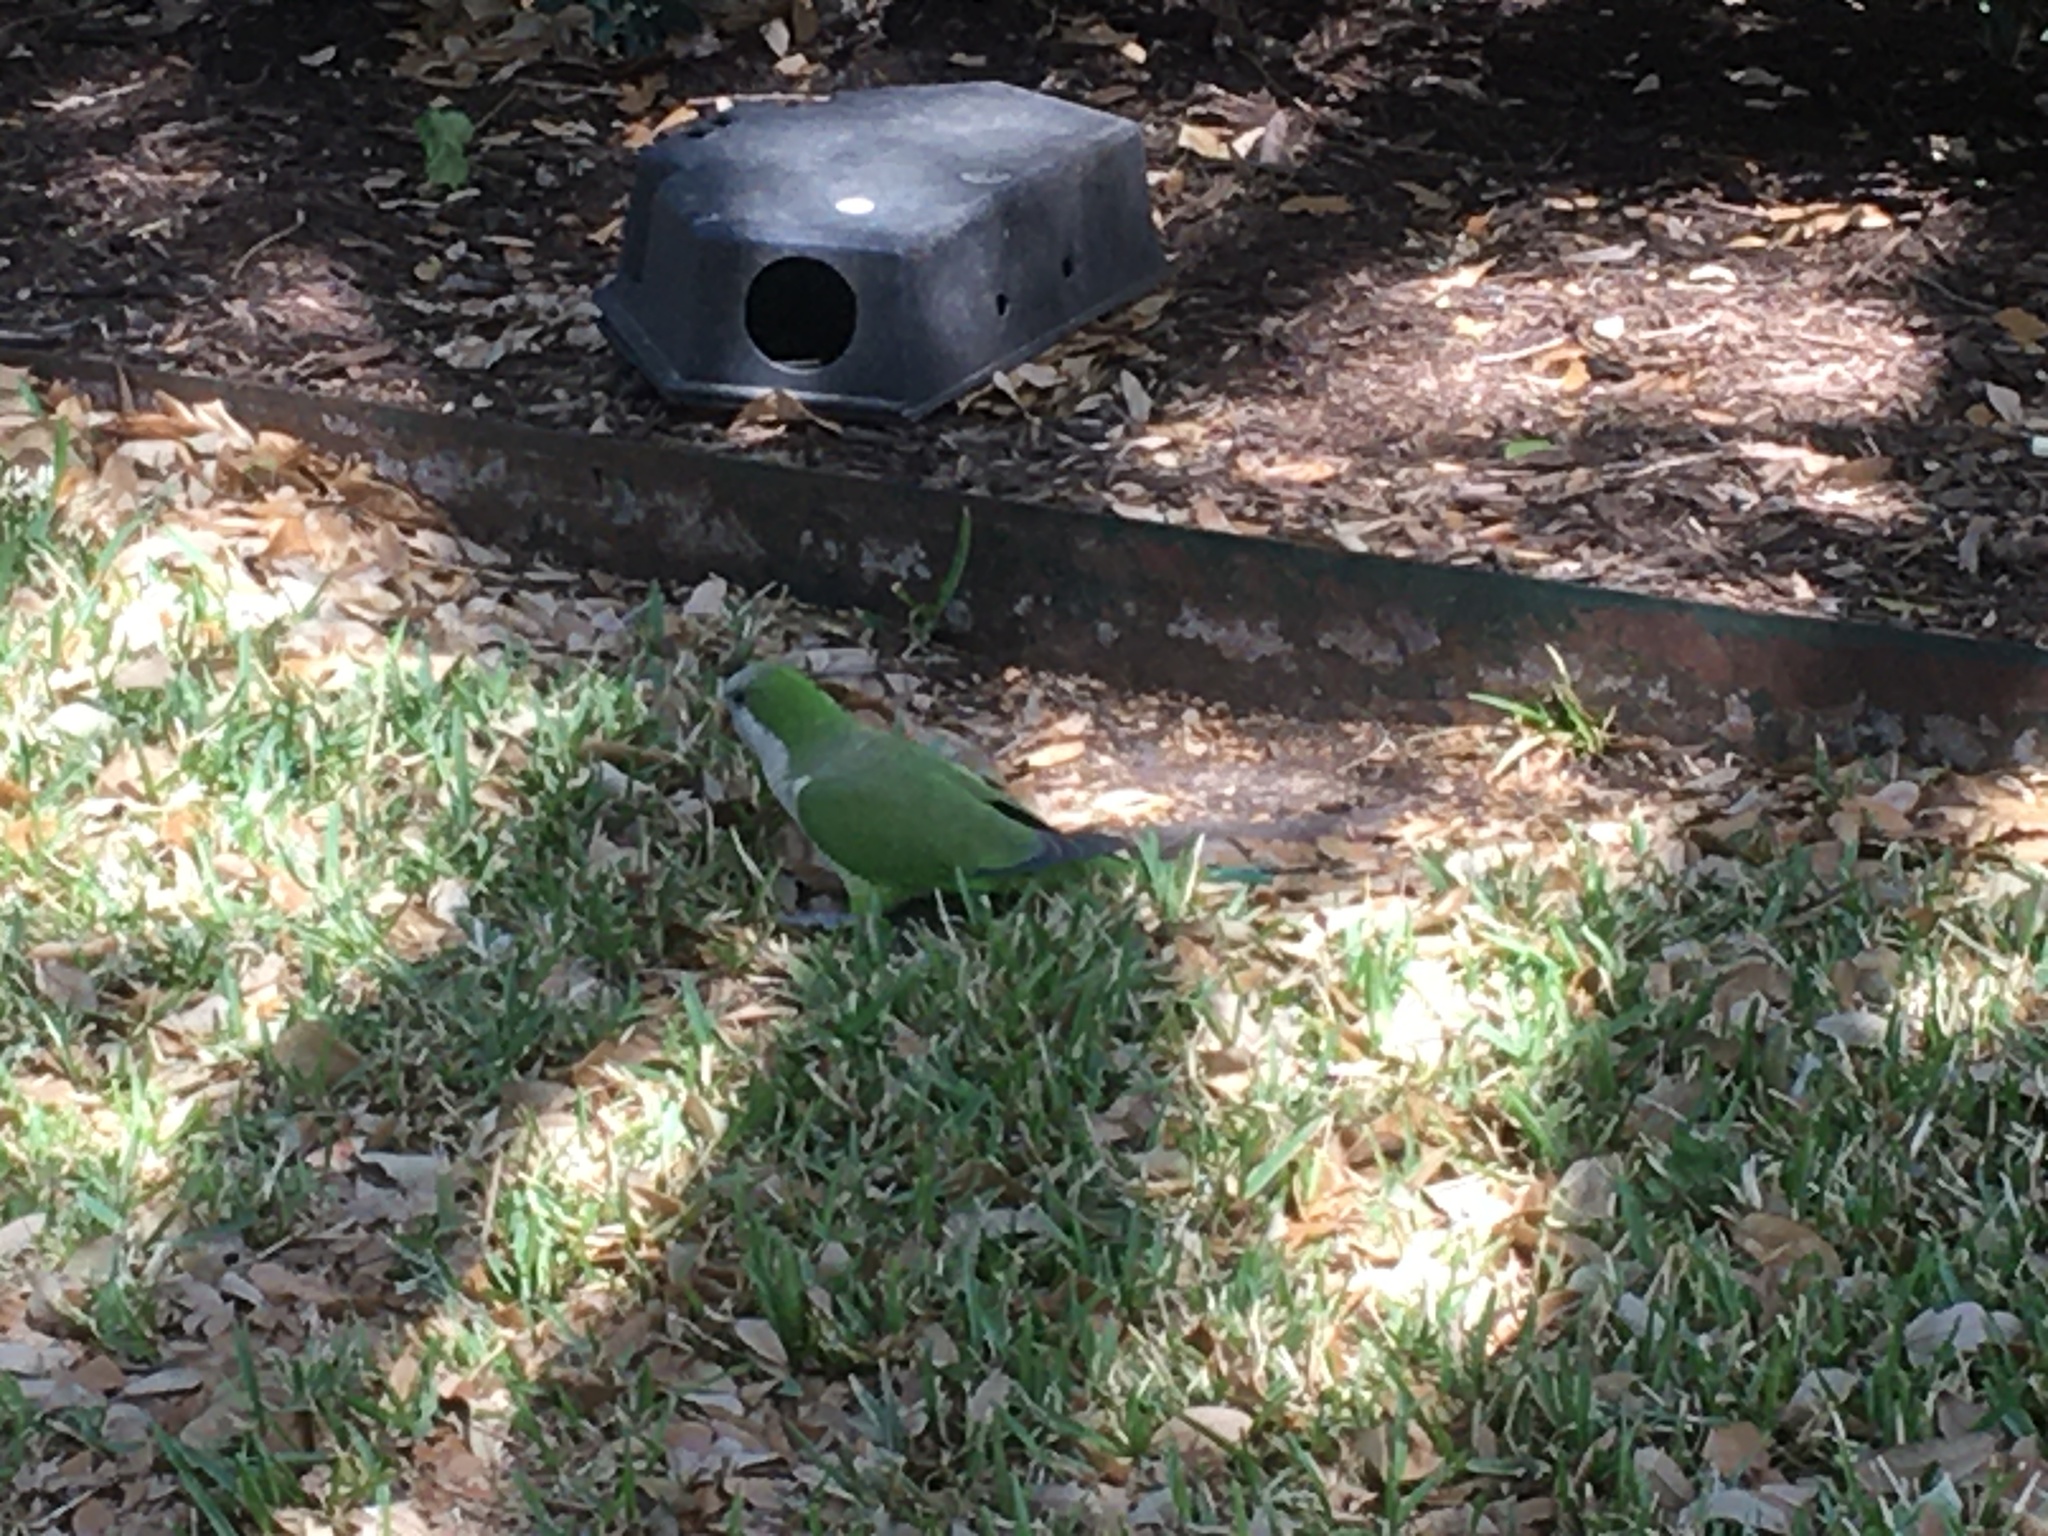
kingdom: Animalia
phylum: Chordata
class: Aves
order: Psittaciformes
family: Psittacidae
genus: Myiopsitta
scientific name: Myiopsitta monachus
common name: Monk parakeet
